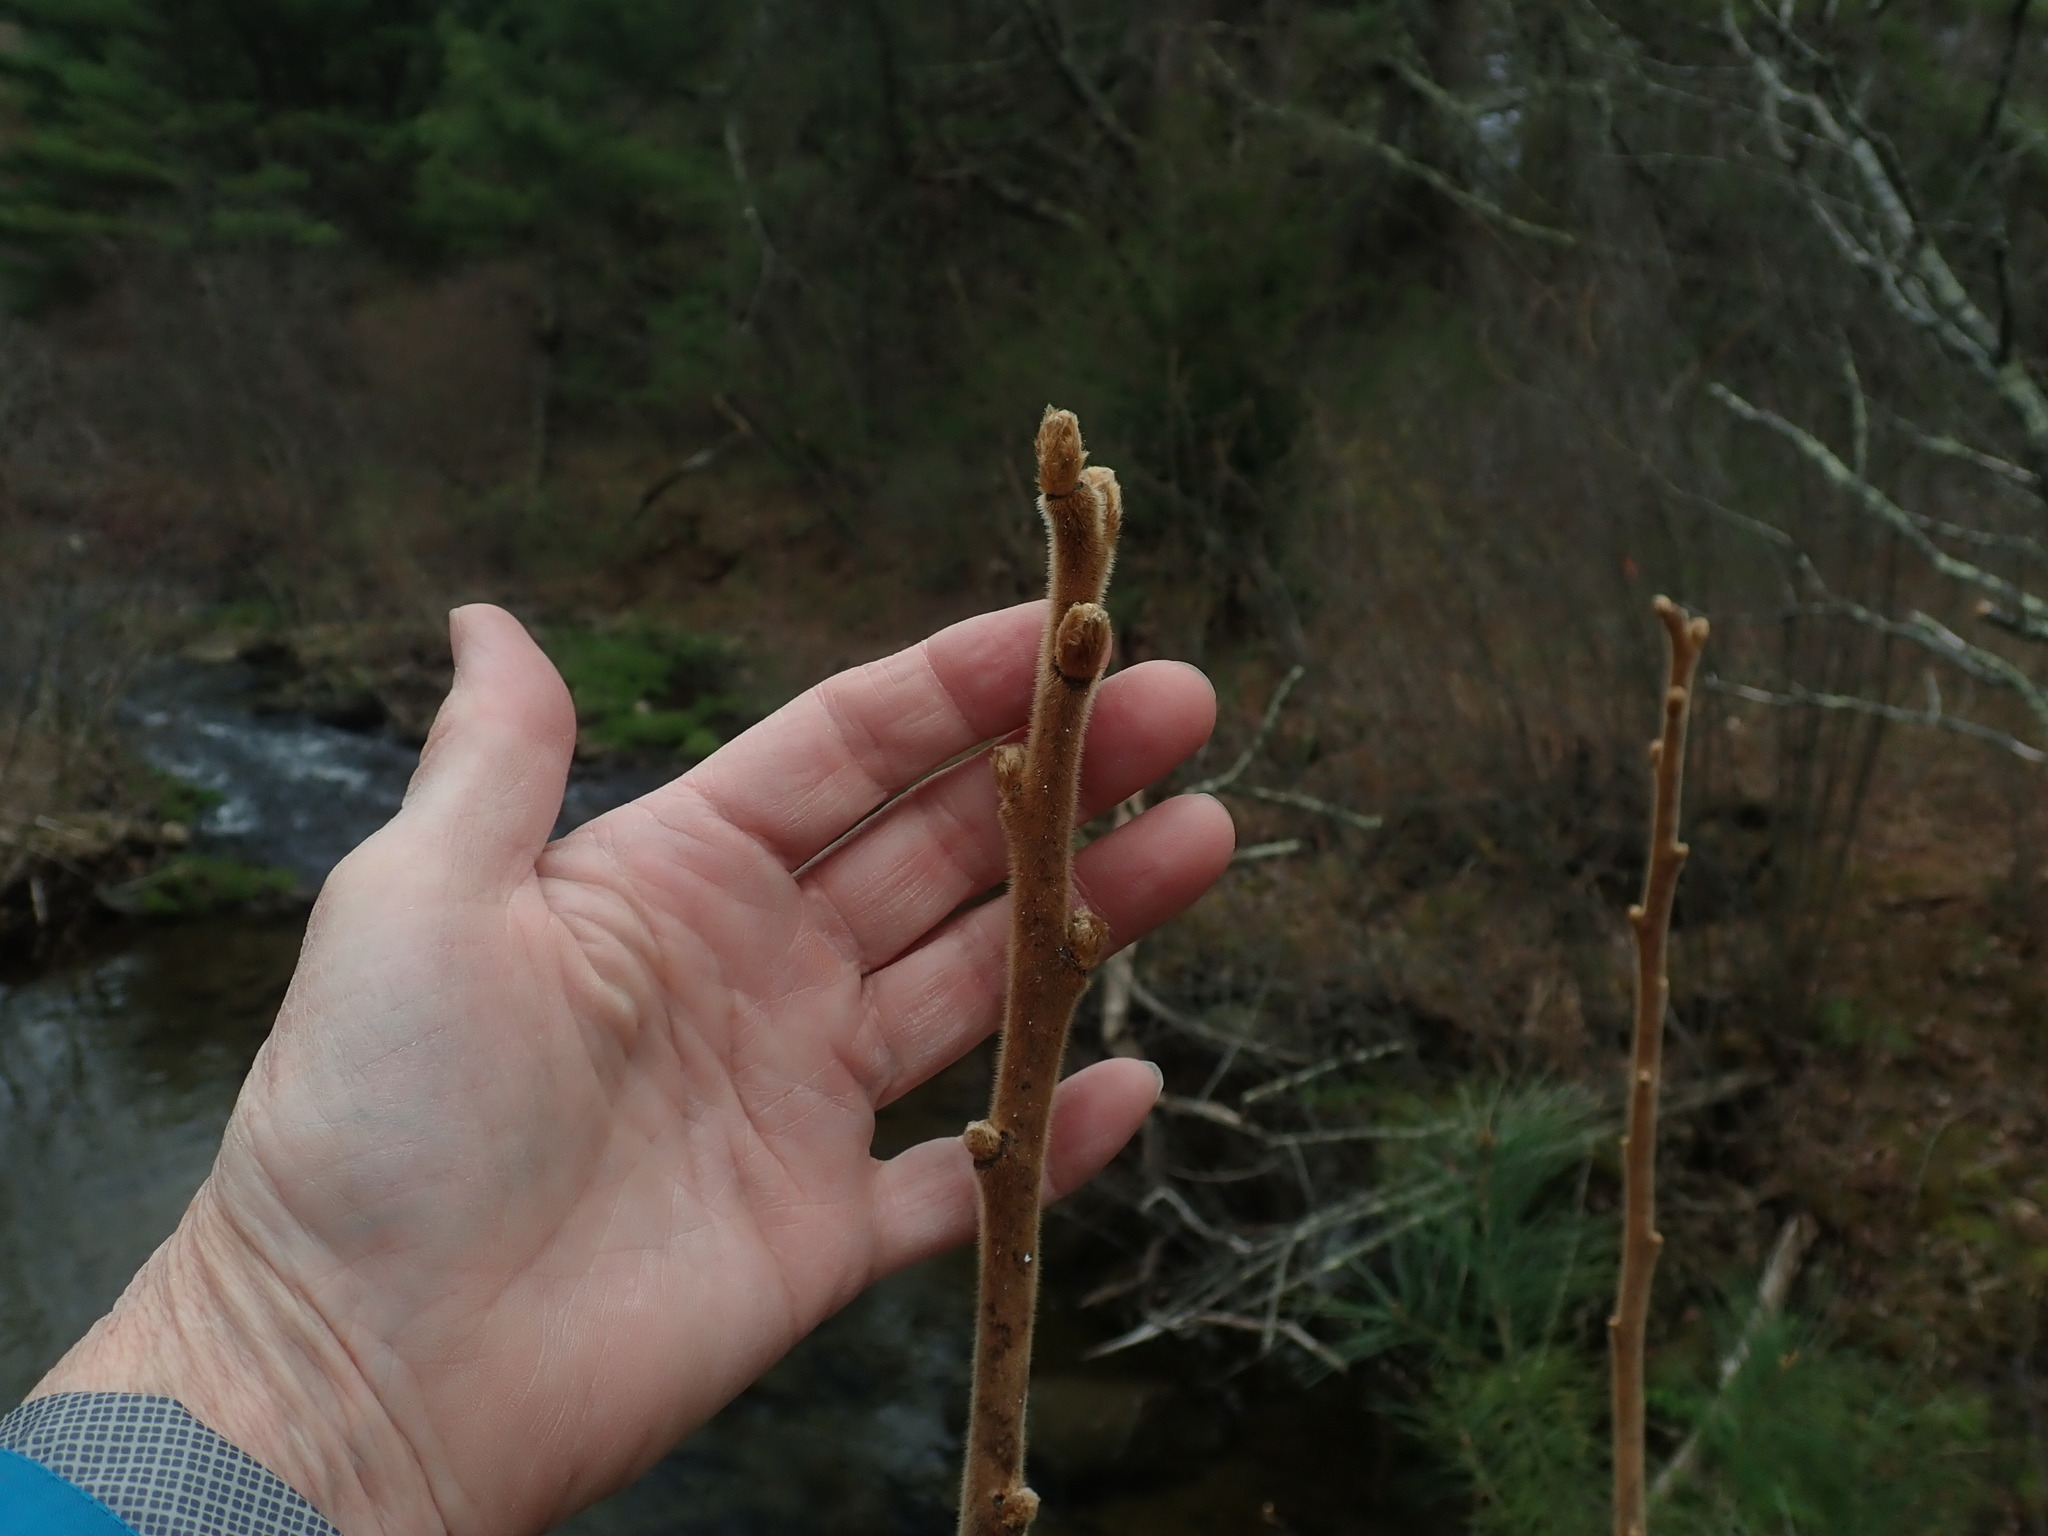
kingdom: Plantae
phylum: Tracheophyta
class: Magnoliopsida
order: Sapindales
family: Anacardiaceae
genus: Rhus
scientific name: Rhus typhina
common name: Staghorn sumac
